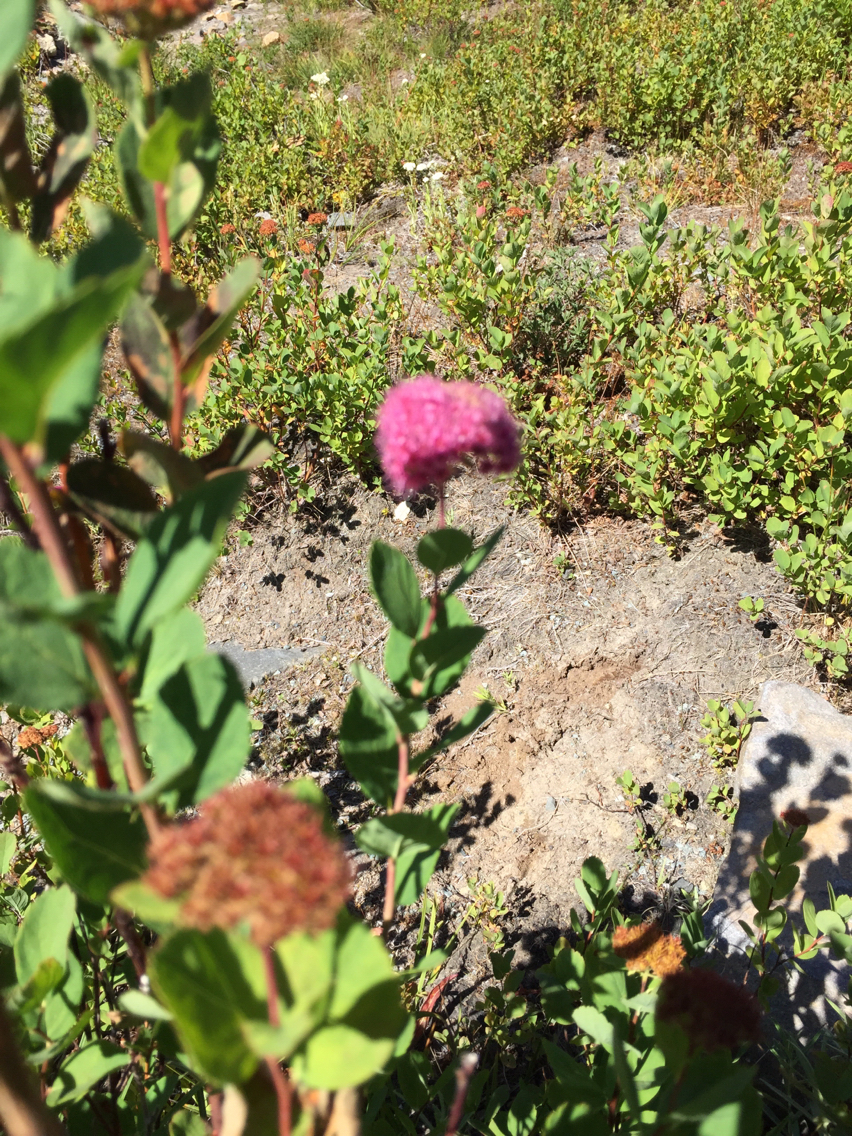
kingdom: Plantae
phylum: Tracheophyta
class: Magnoliopsida
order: Rosales
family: Rosaceae
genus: Spiraea
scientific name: Spiraea splendens
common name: Subalpine meadowsweet
